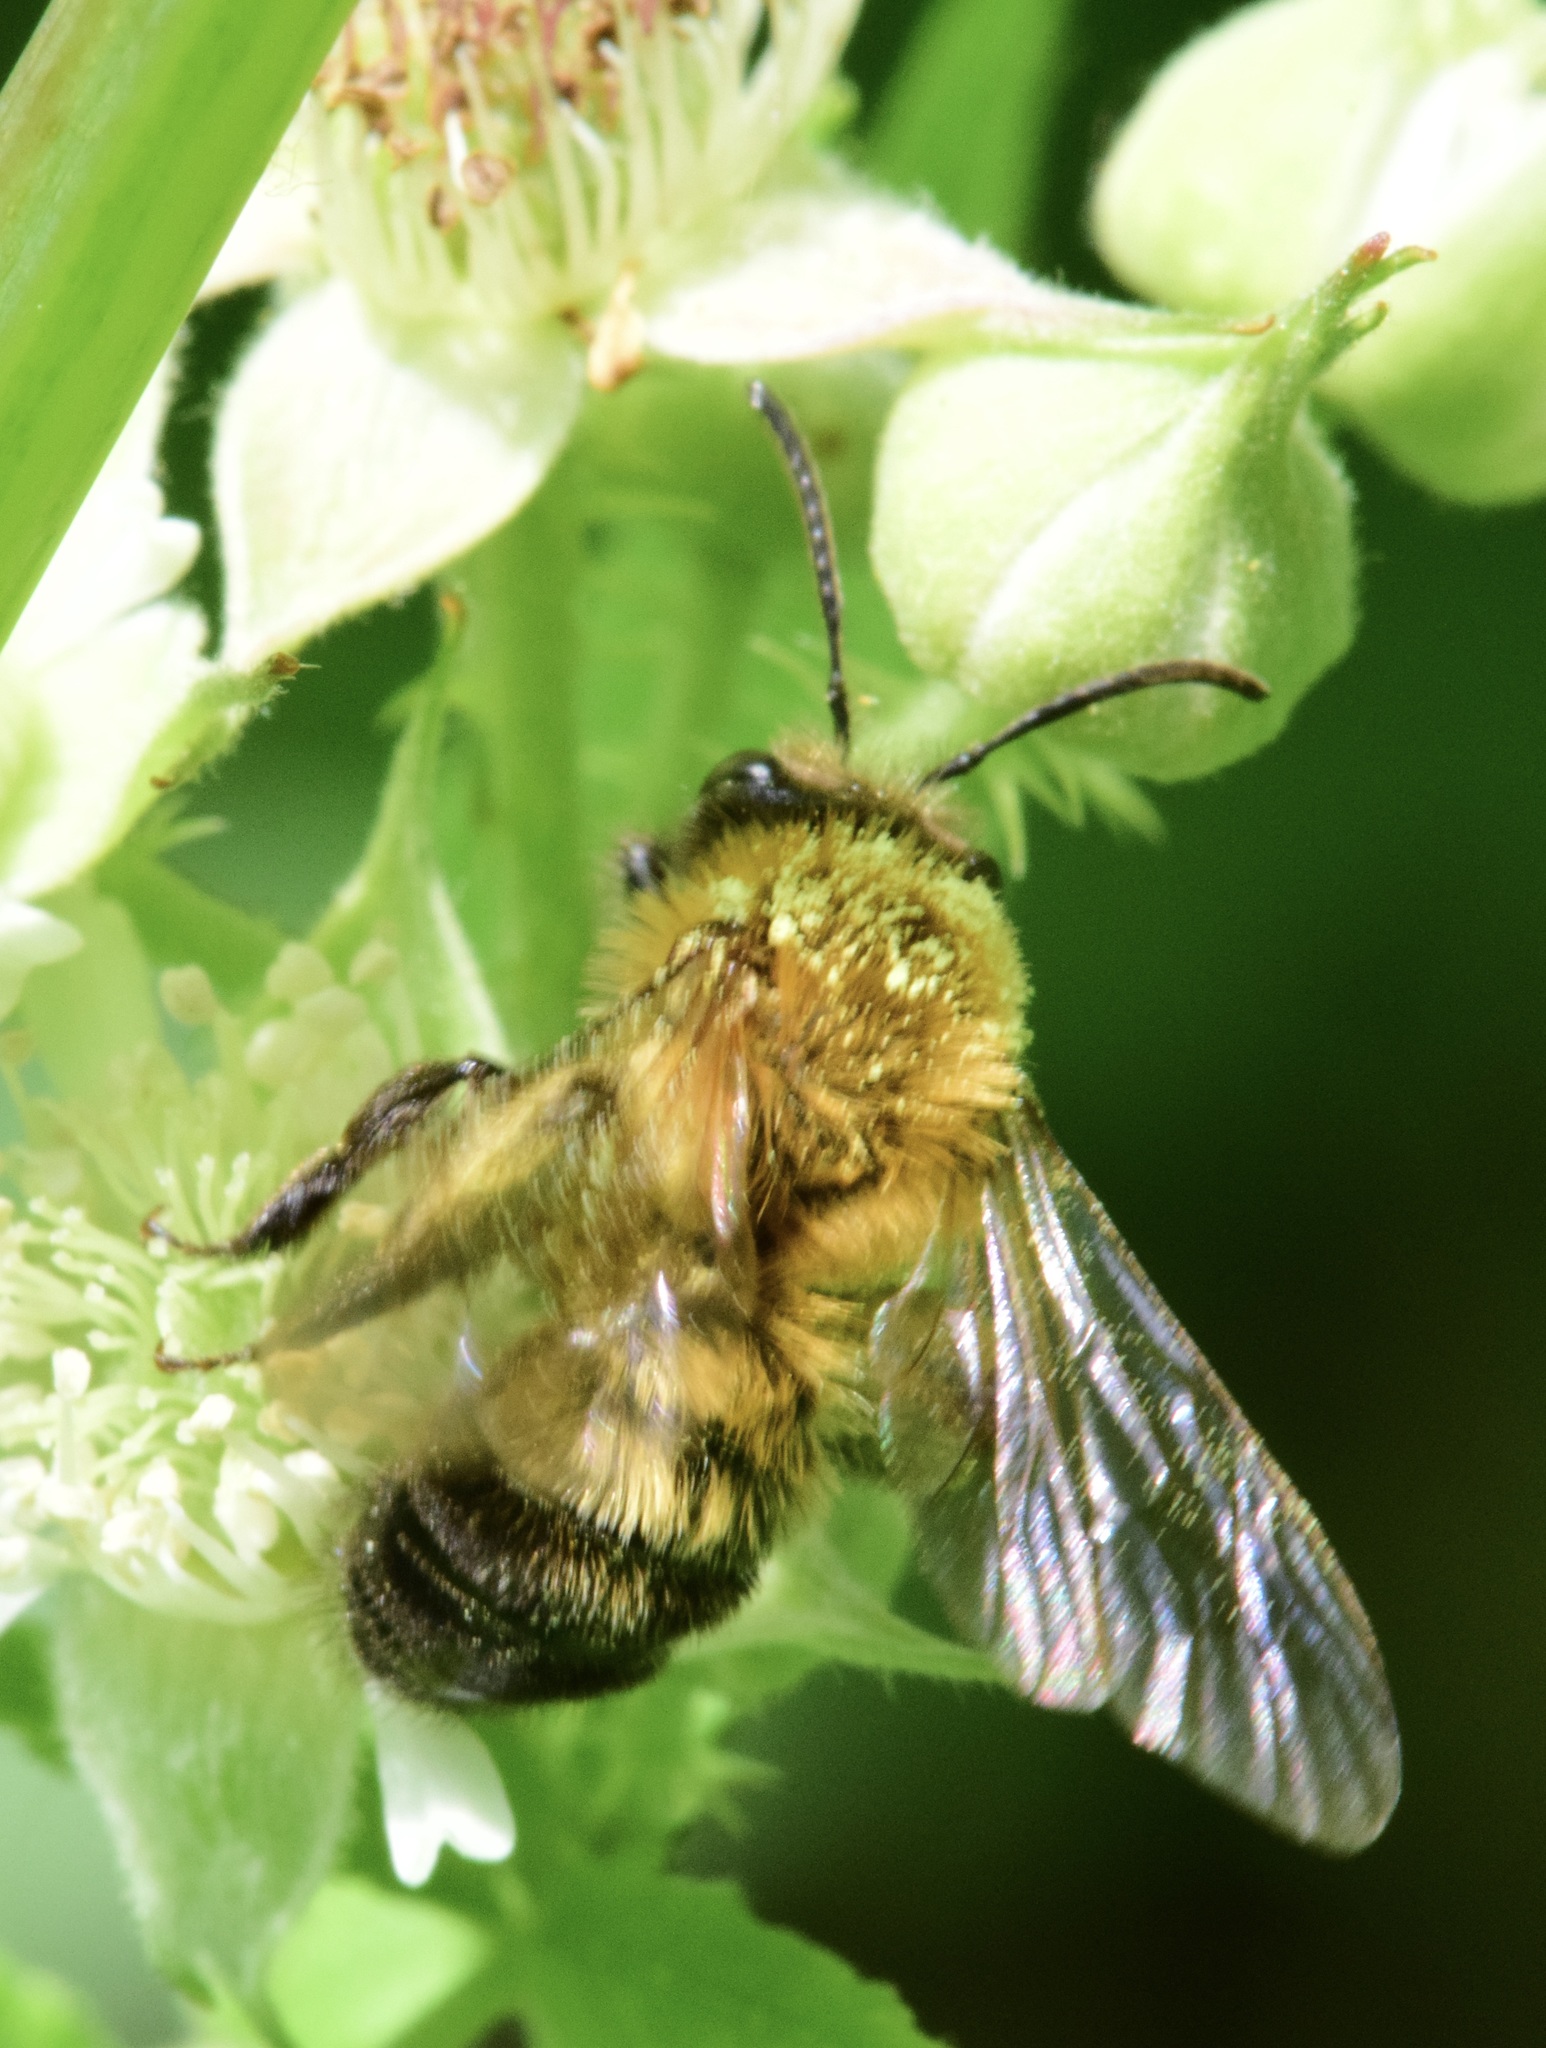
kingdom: Animalia
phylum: Arthropoda
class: Insecta
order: Hymenoptera
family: Andrenidae
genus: Andrena
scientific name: Andrena milwaukeensis
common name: Milwaukee mining bee
